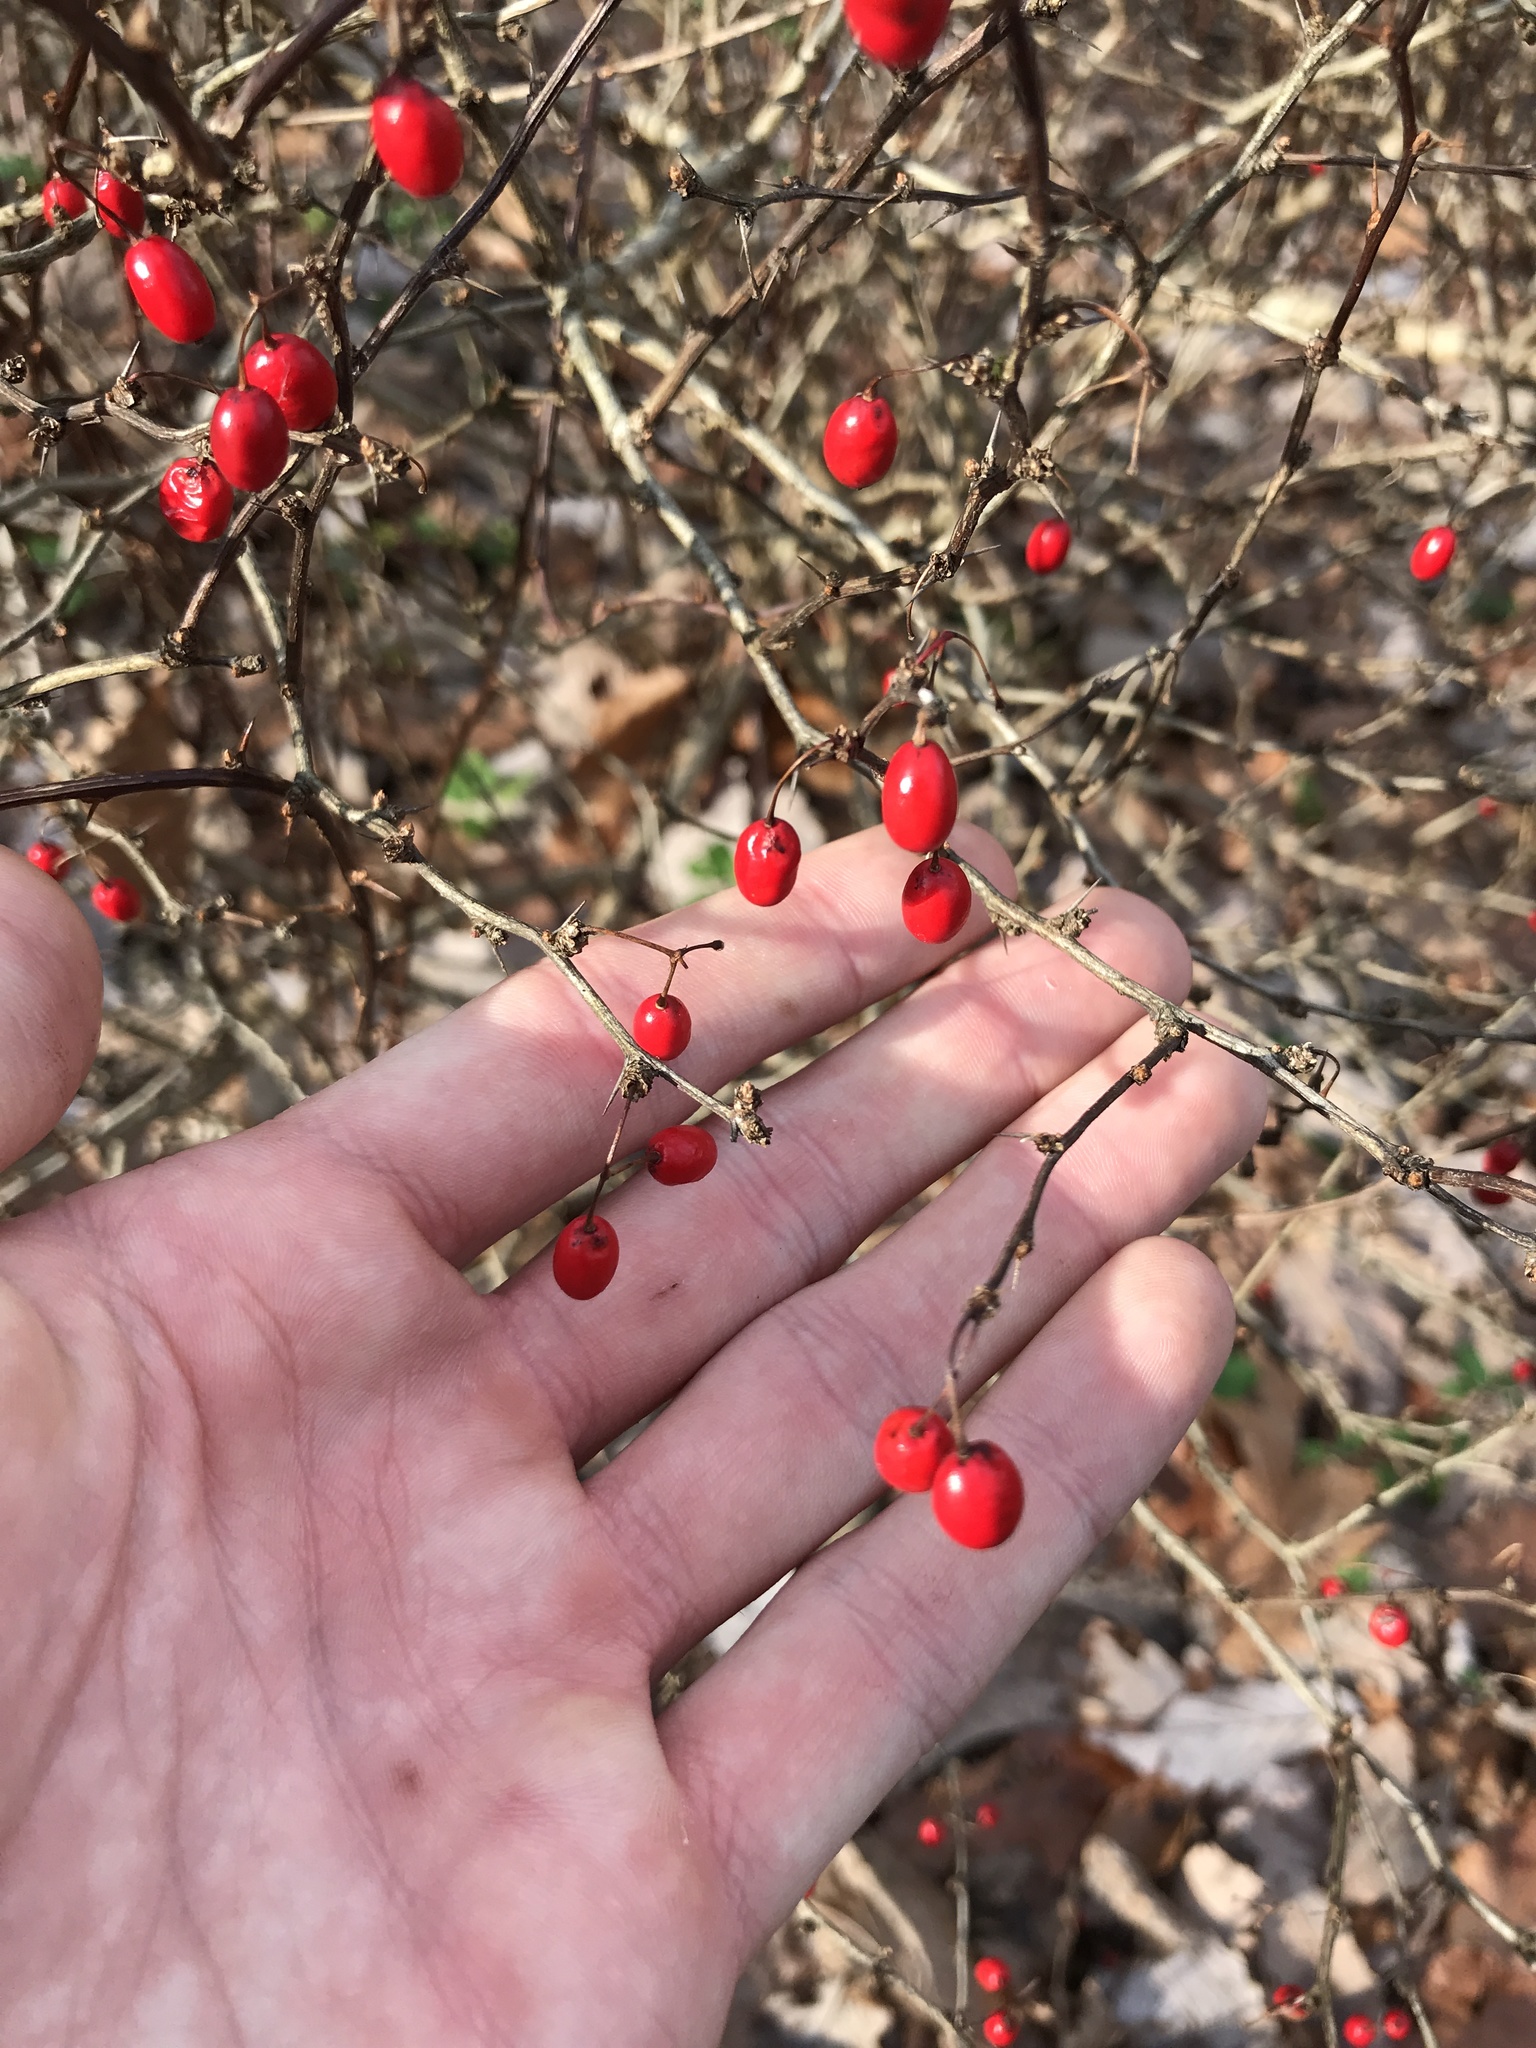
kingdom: Plantae
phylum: Tracheophyta
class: Magnoliopsida
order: Ranunculales
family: Berberidaceae
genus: Berberis
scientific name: Berberis thunbergii
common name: Japanese barberry
